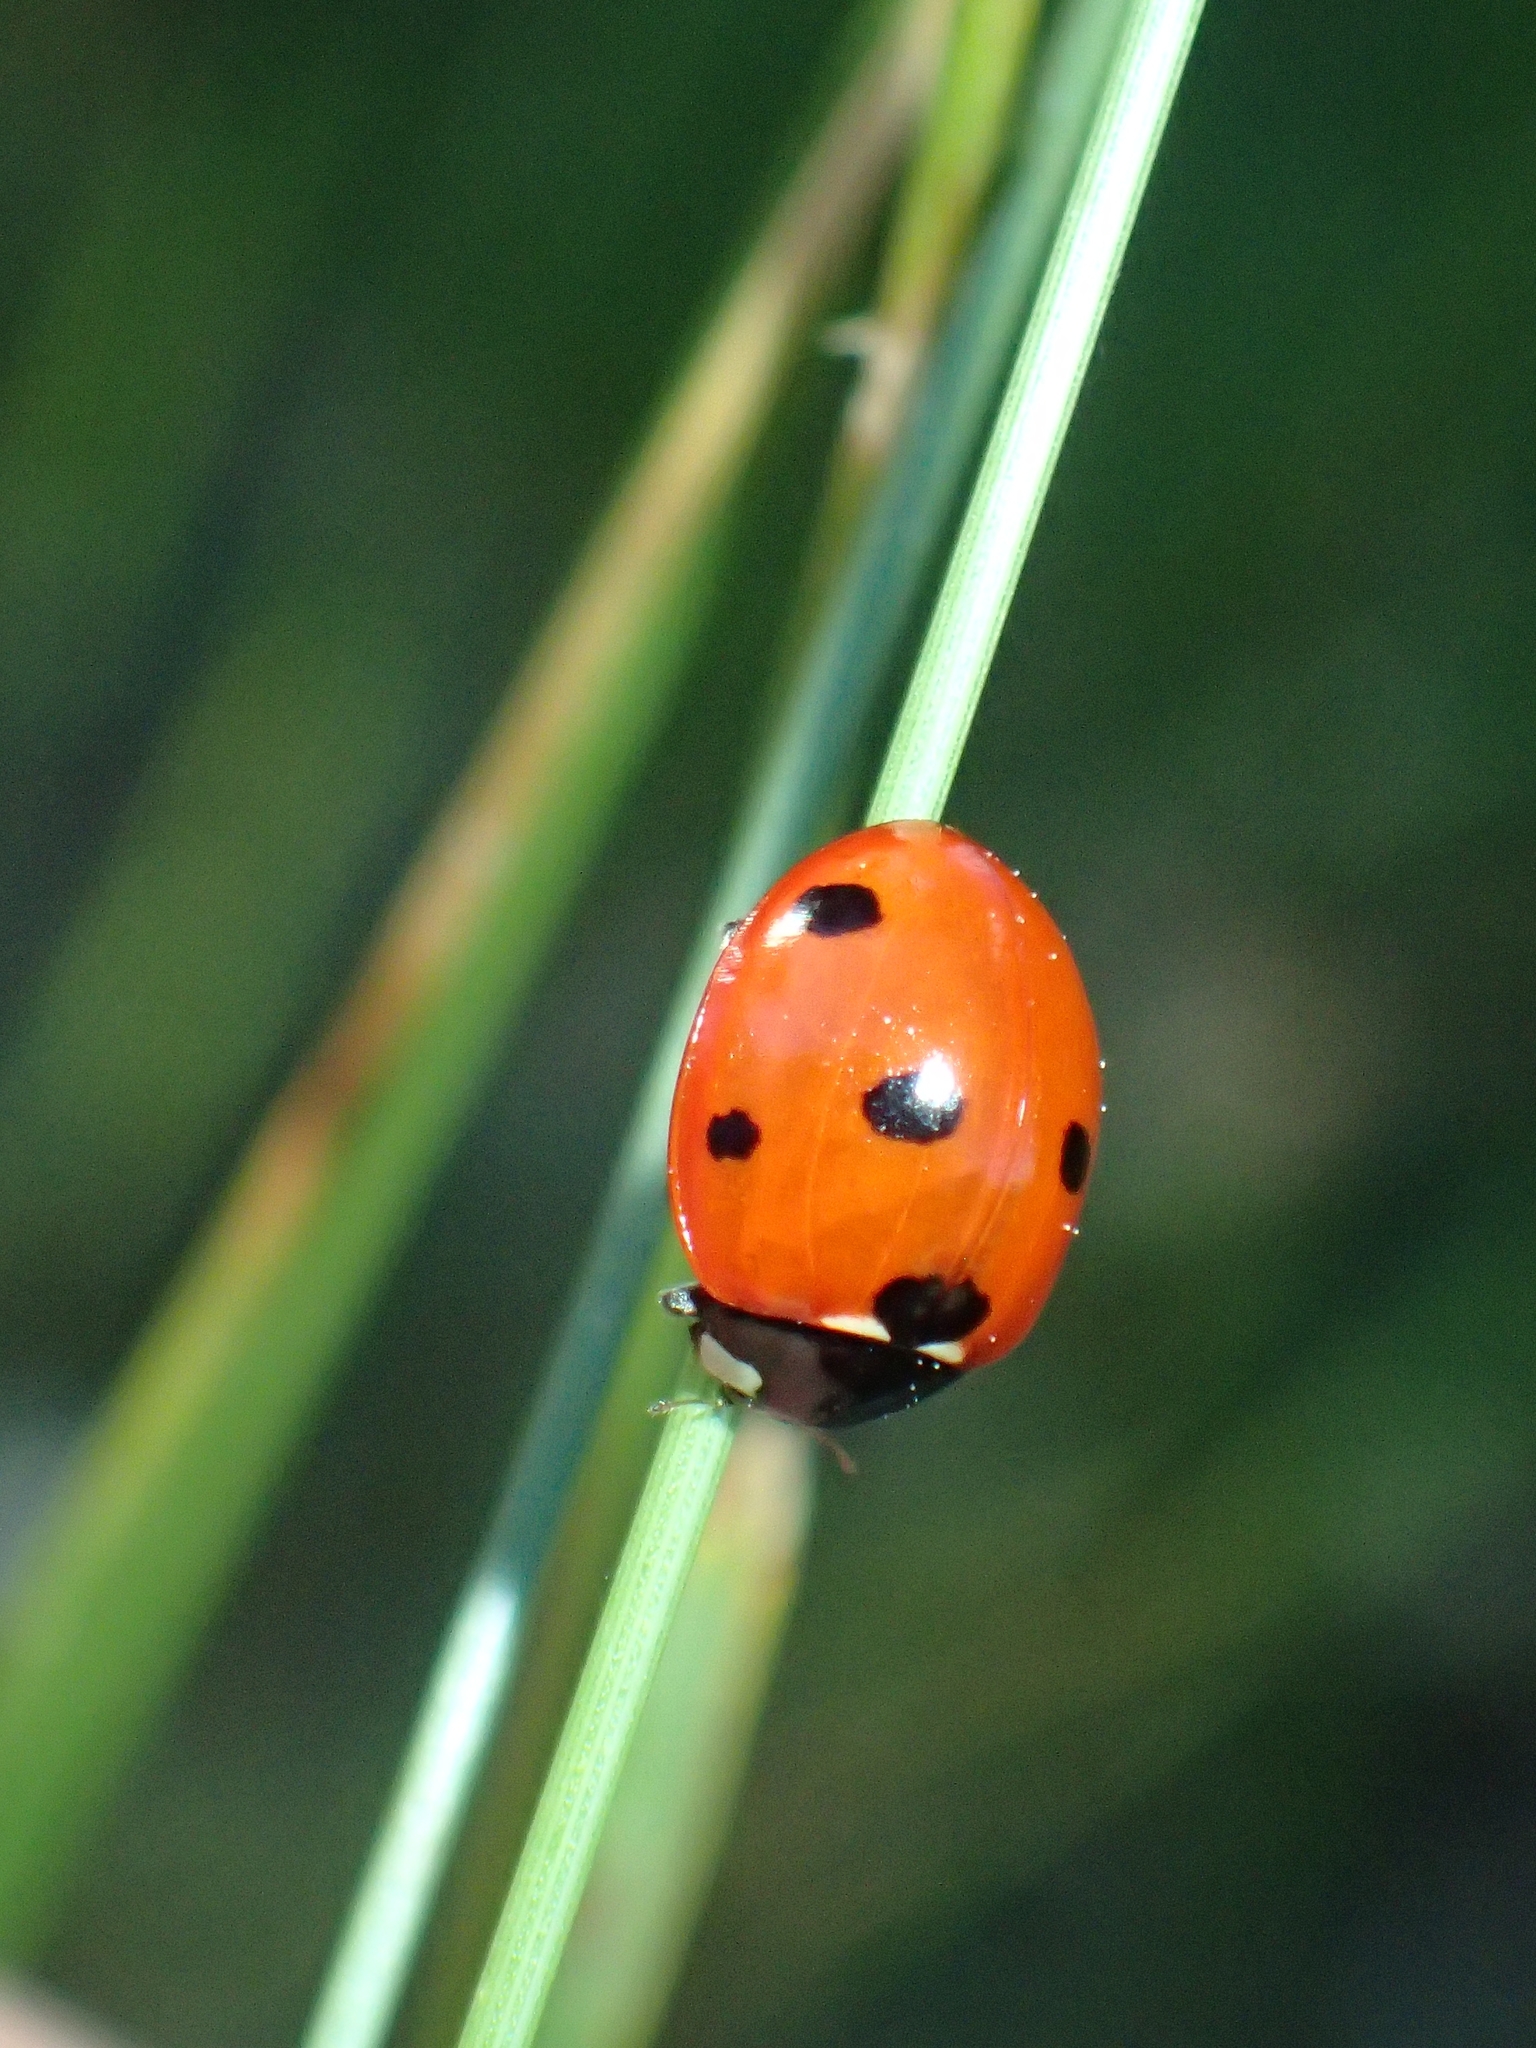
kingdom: Animalia
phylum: Arthropoda
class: Insecta
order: Coleoptera
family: Coccinellidae
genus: Coccinella
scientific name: Coccinella septempunctata
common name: Sevenspotted lady beetle
